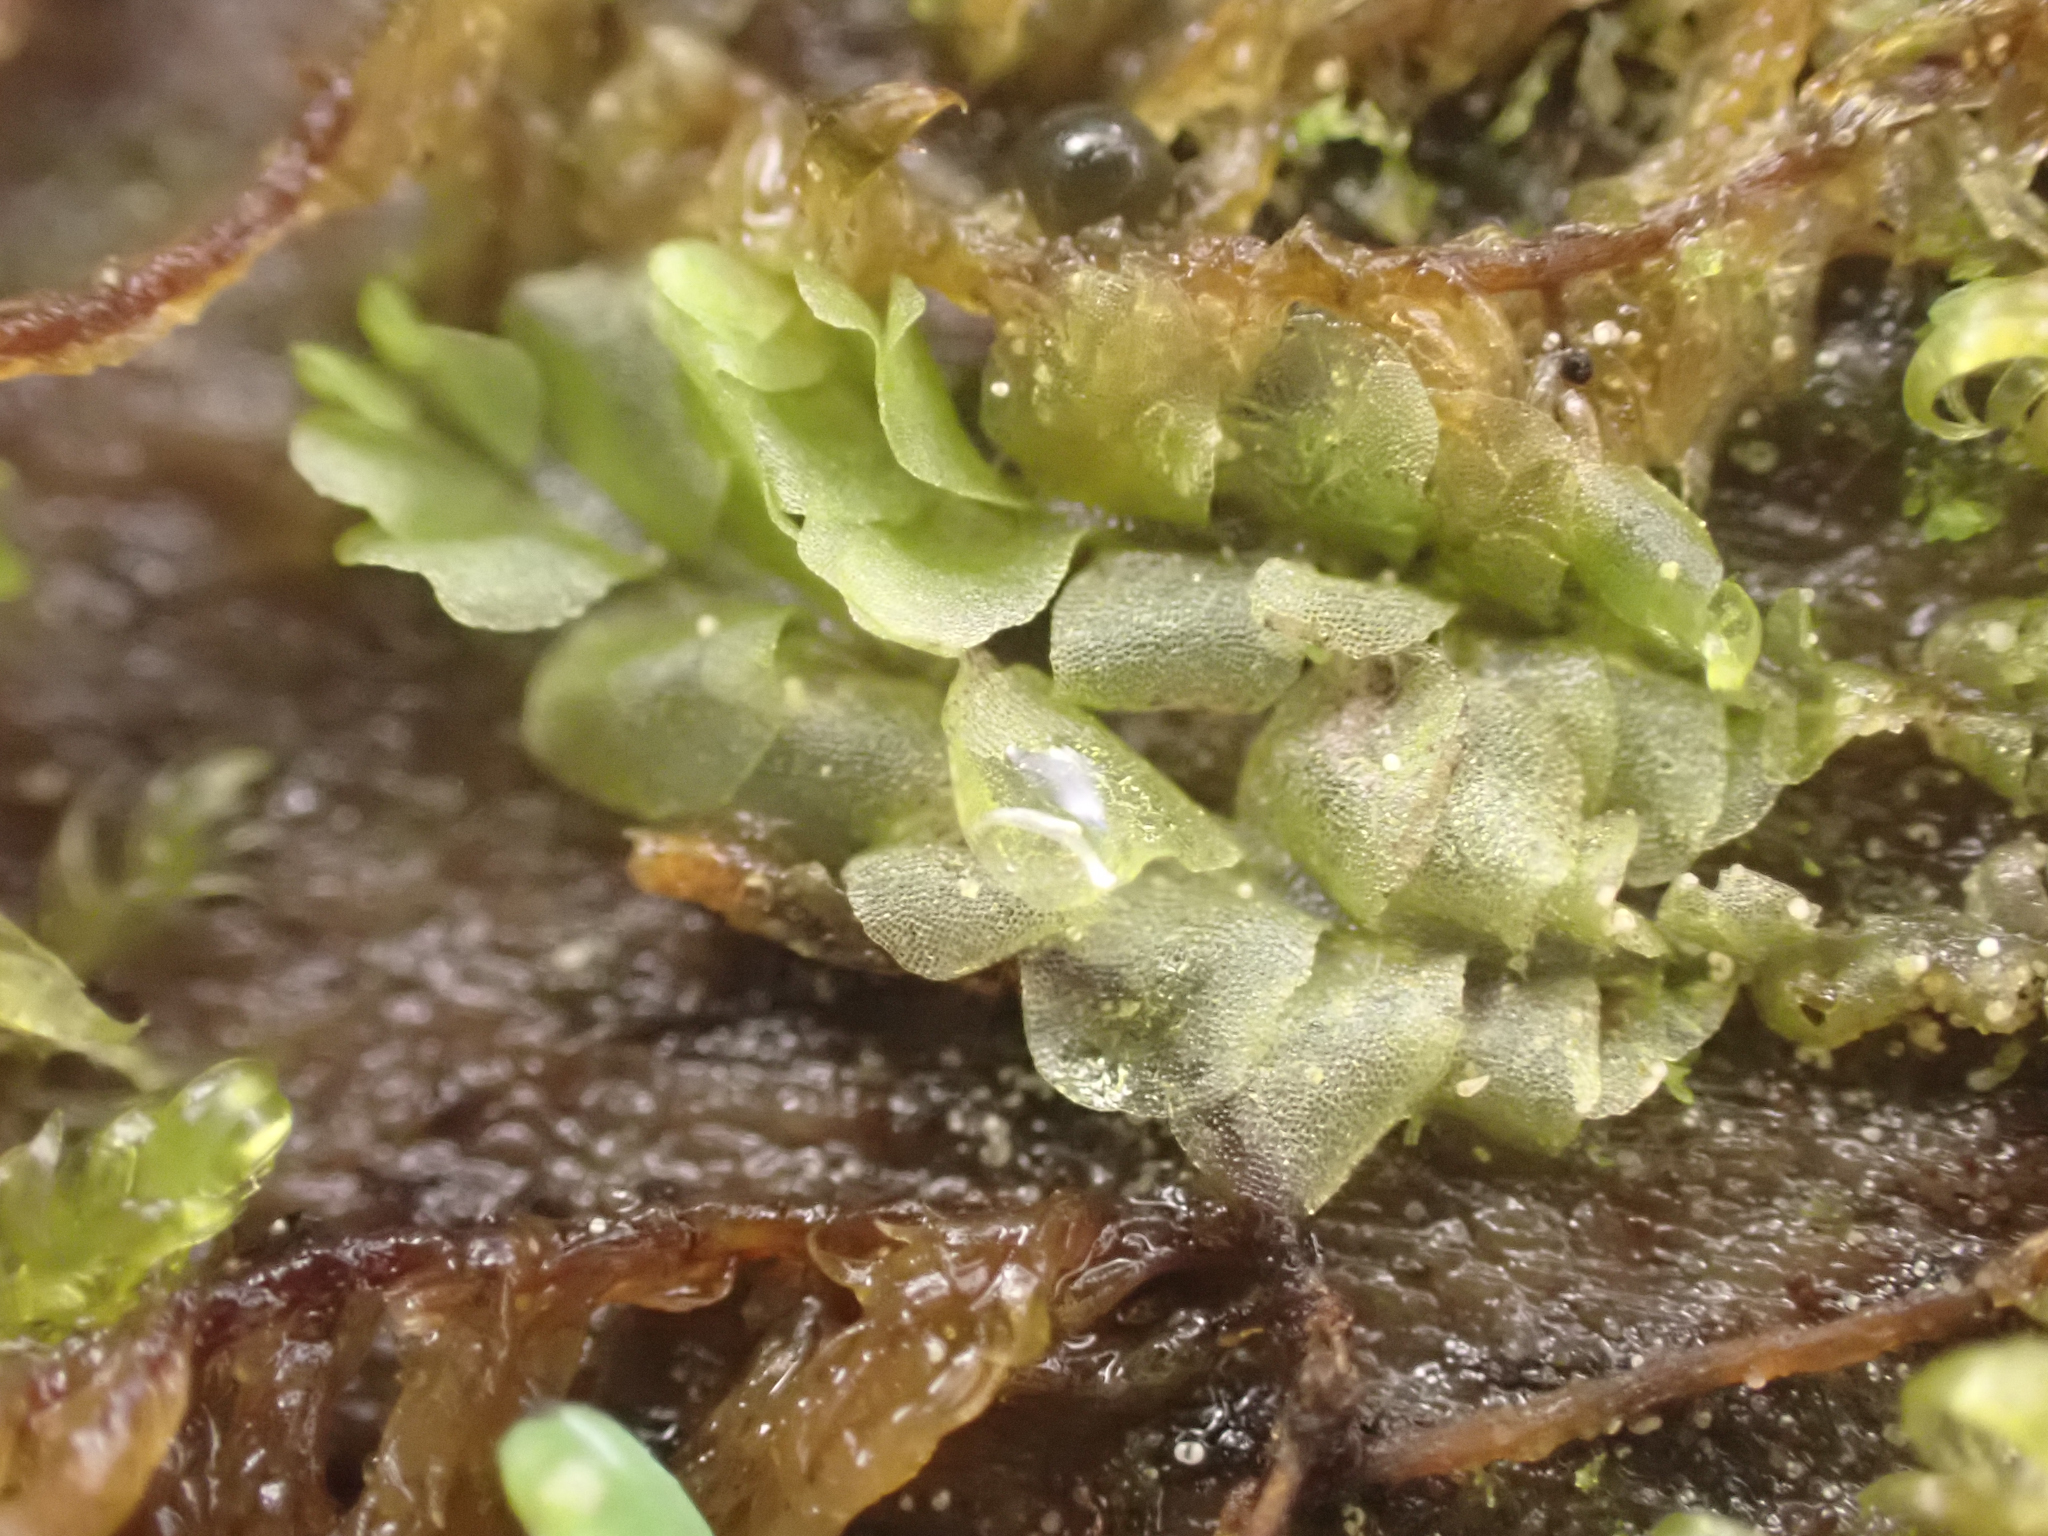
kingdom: Plantae
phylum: Marchantiophyta
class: Jungermanniopsida
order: Jungermanniales
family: Lophocoleaceae
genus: Lophocolea
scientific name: Lophocolea heterophylla
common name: Variable-leaved crestwort
